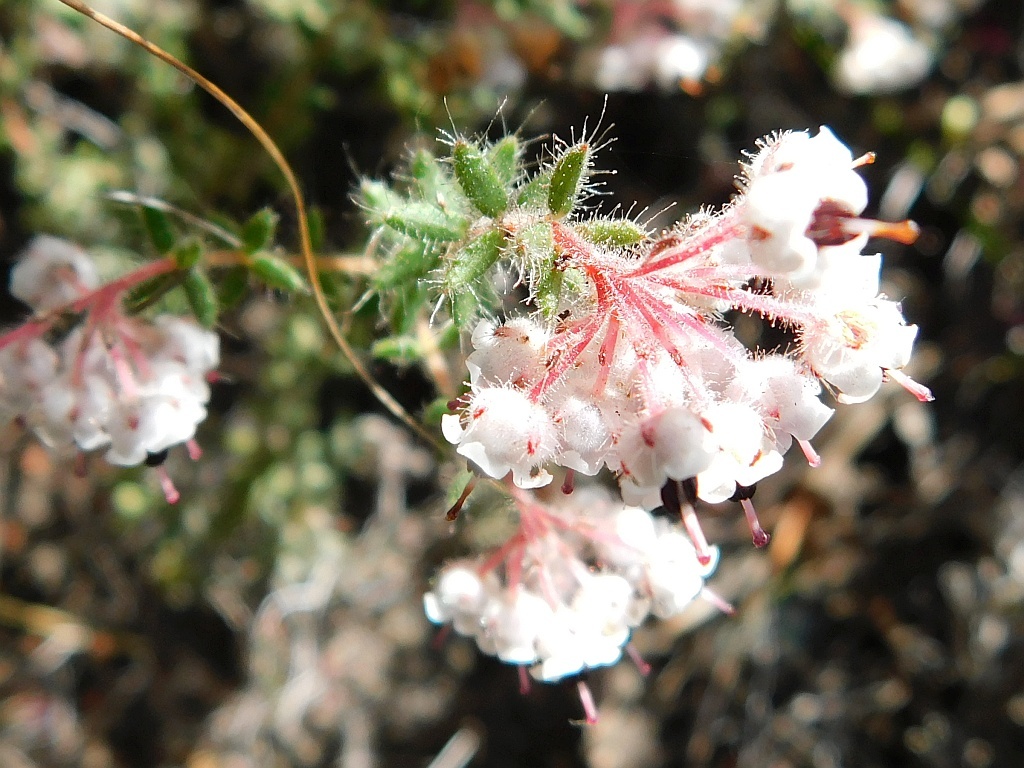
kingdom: Plantae
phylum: Tracheophyta
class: Magnoliopsida
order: Ericales
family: Ericaceae
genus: Erica
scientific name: Erica perlata
